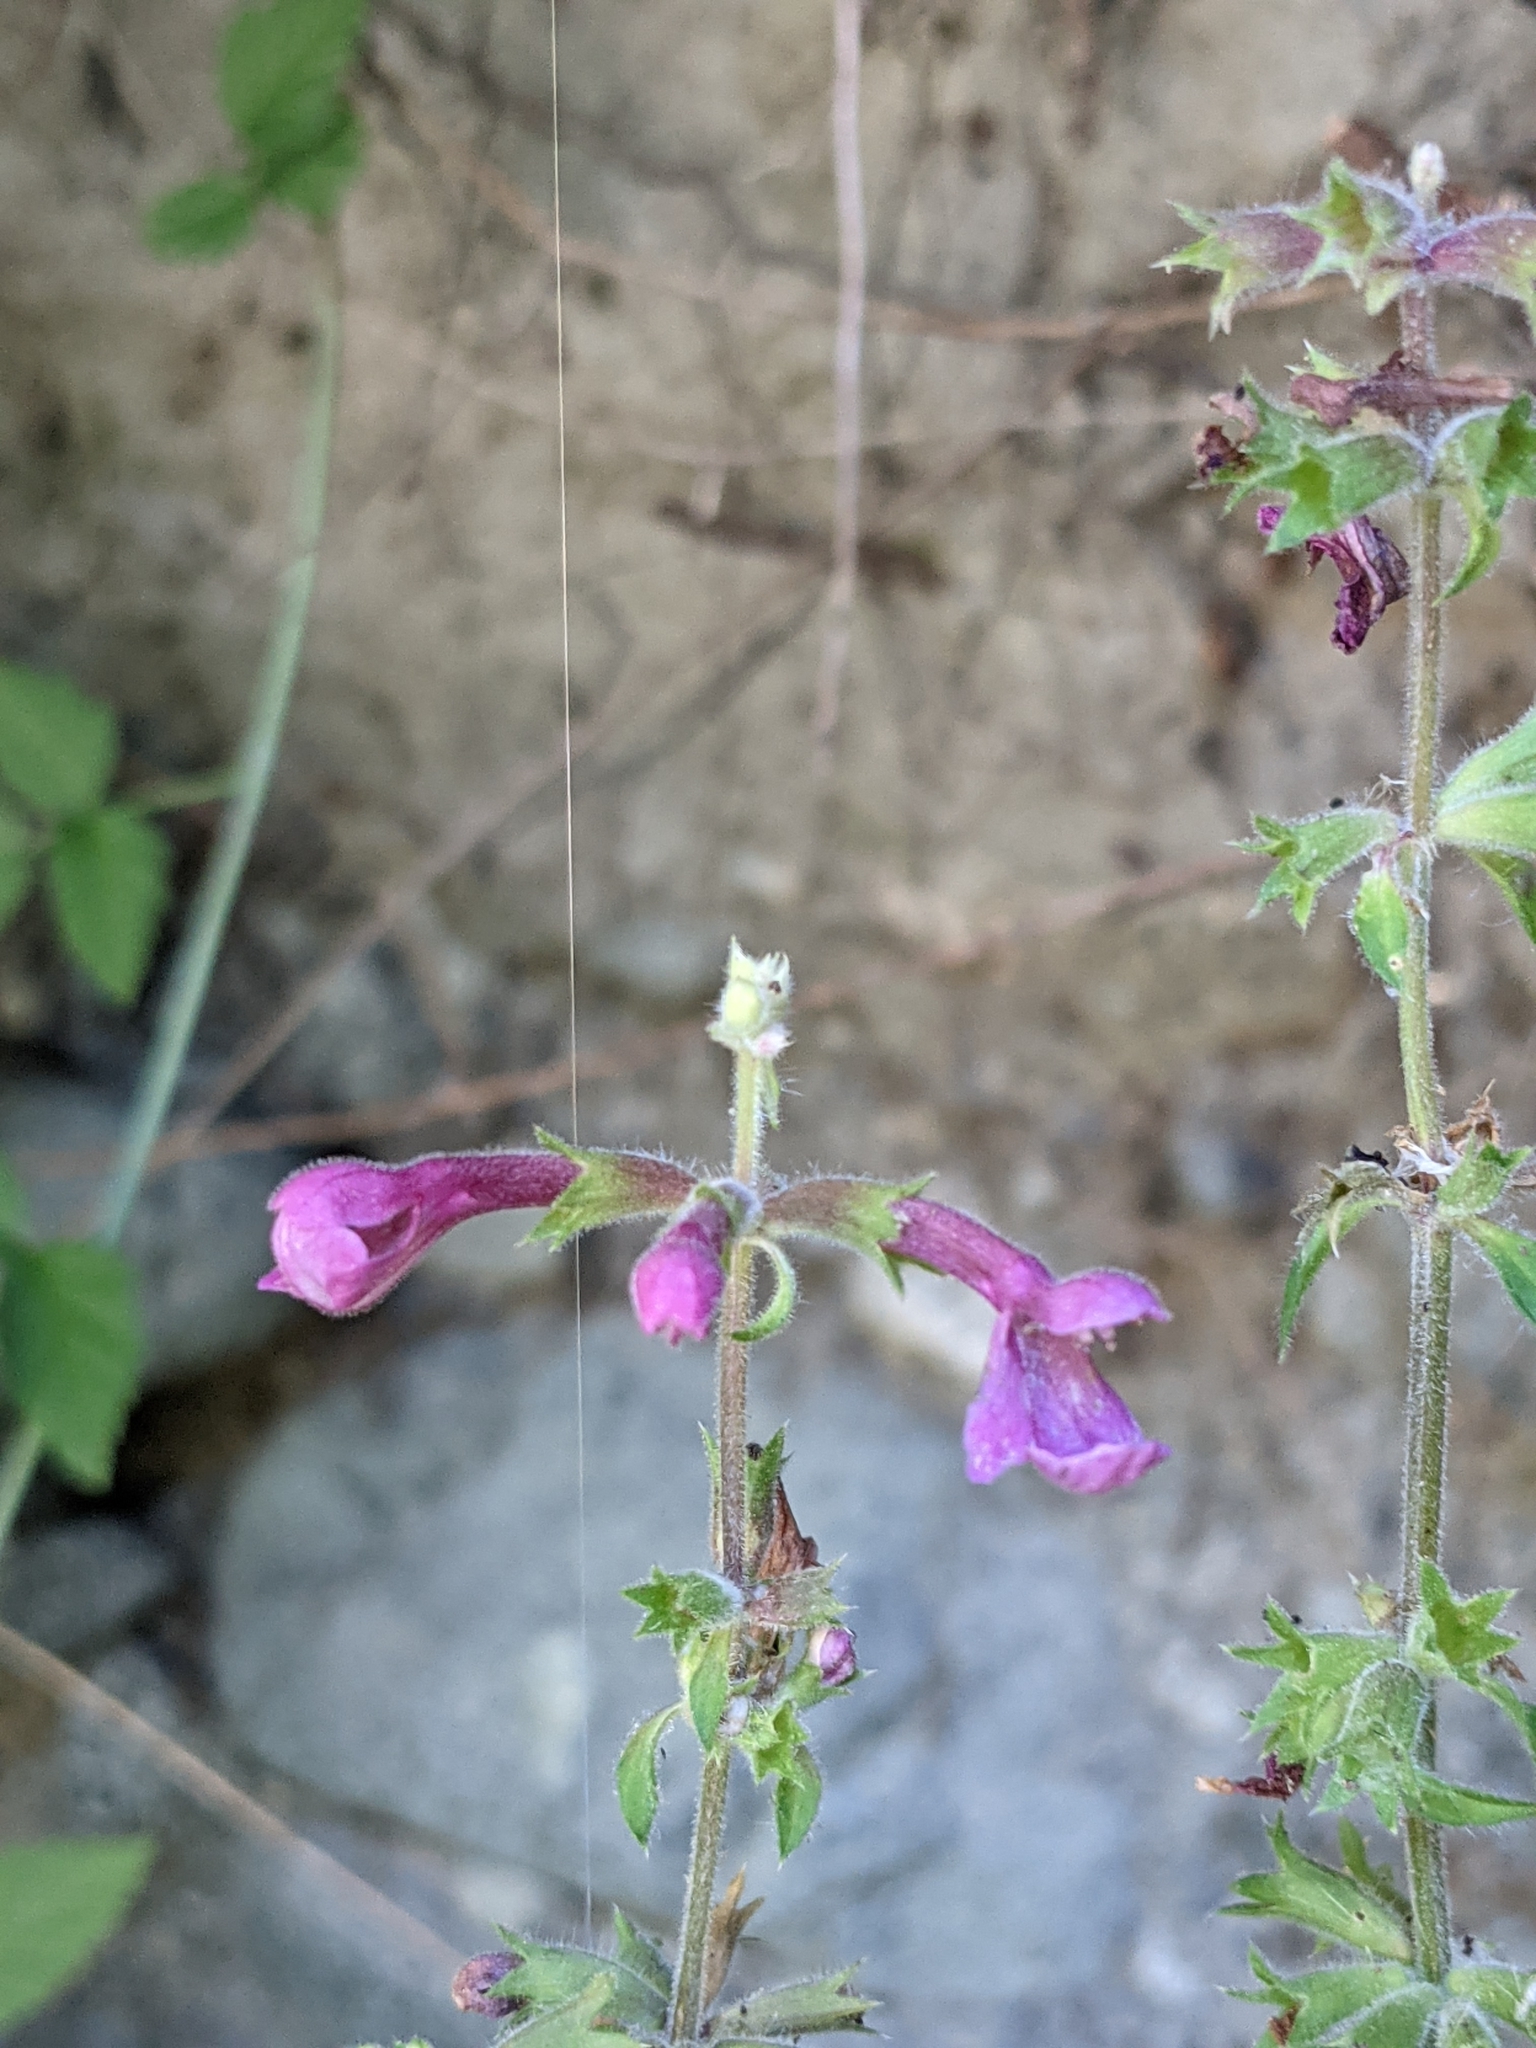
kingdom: Plantae
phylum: Tracheophyta
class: Magnoliopsida
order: Lamiales
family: Lamiaceae
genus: Stachys
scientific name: Stachys chamissonis
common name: Coastal hedge-nettle
